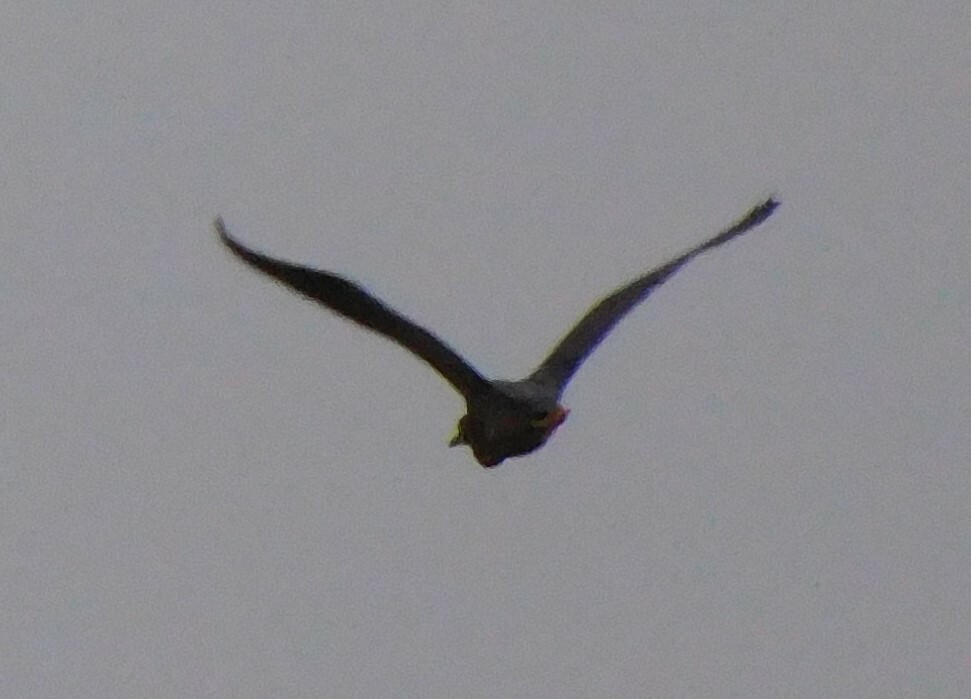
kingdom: Animalia
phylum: Chordata
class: Aves
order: Pelecaniformes
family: Ardeidae
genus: Butorides
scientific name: Butorides virescens
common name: Green heron
